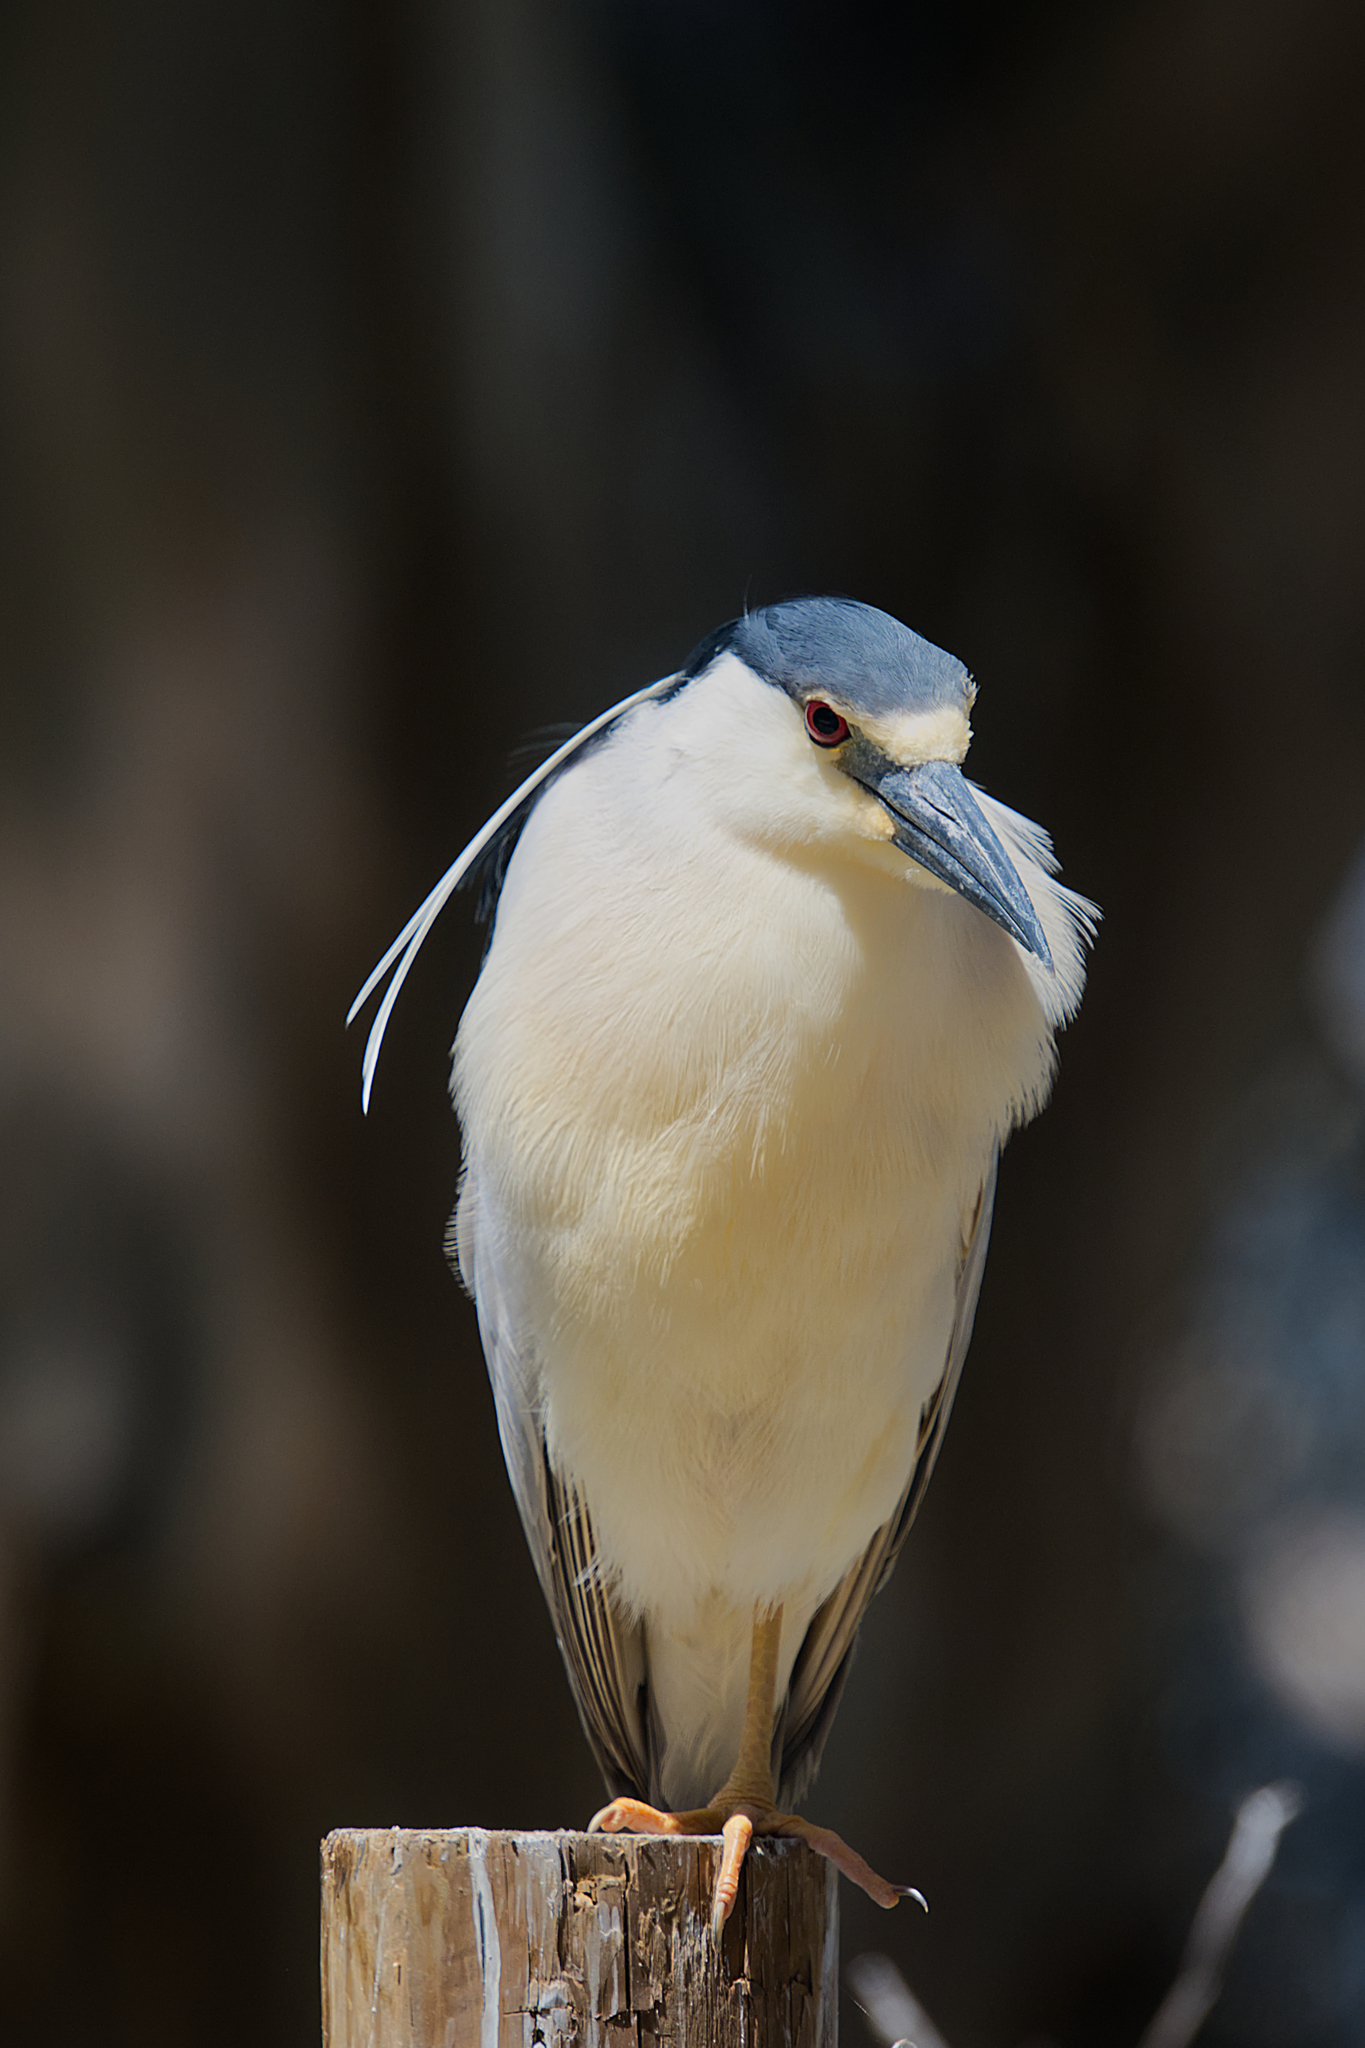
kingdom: Animalia
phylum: Chordata
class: Aves
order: Pelecaniformes
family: Ardeidae
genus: Nycticorax
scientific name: Nycticorax nycticorax
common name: Black-crowned night heron
